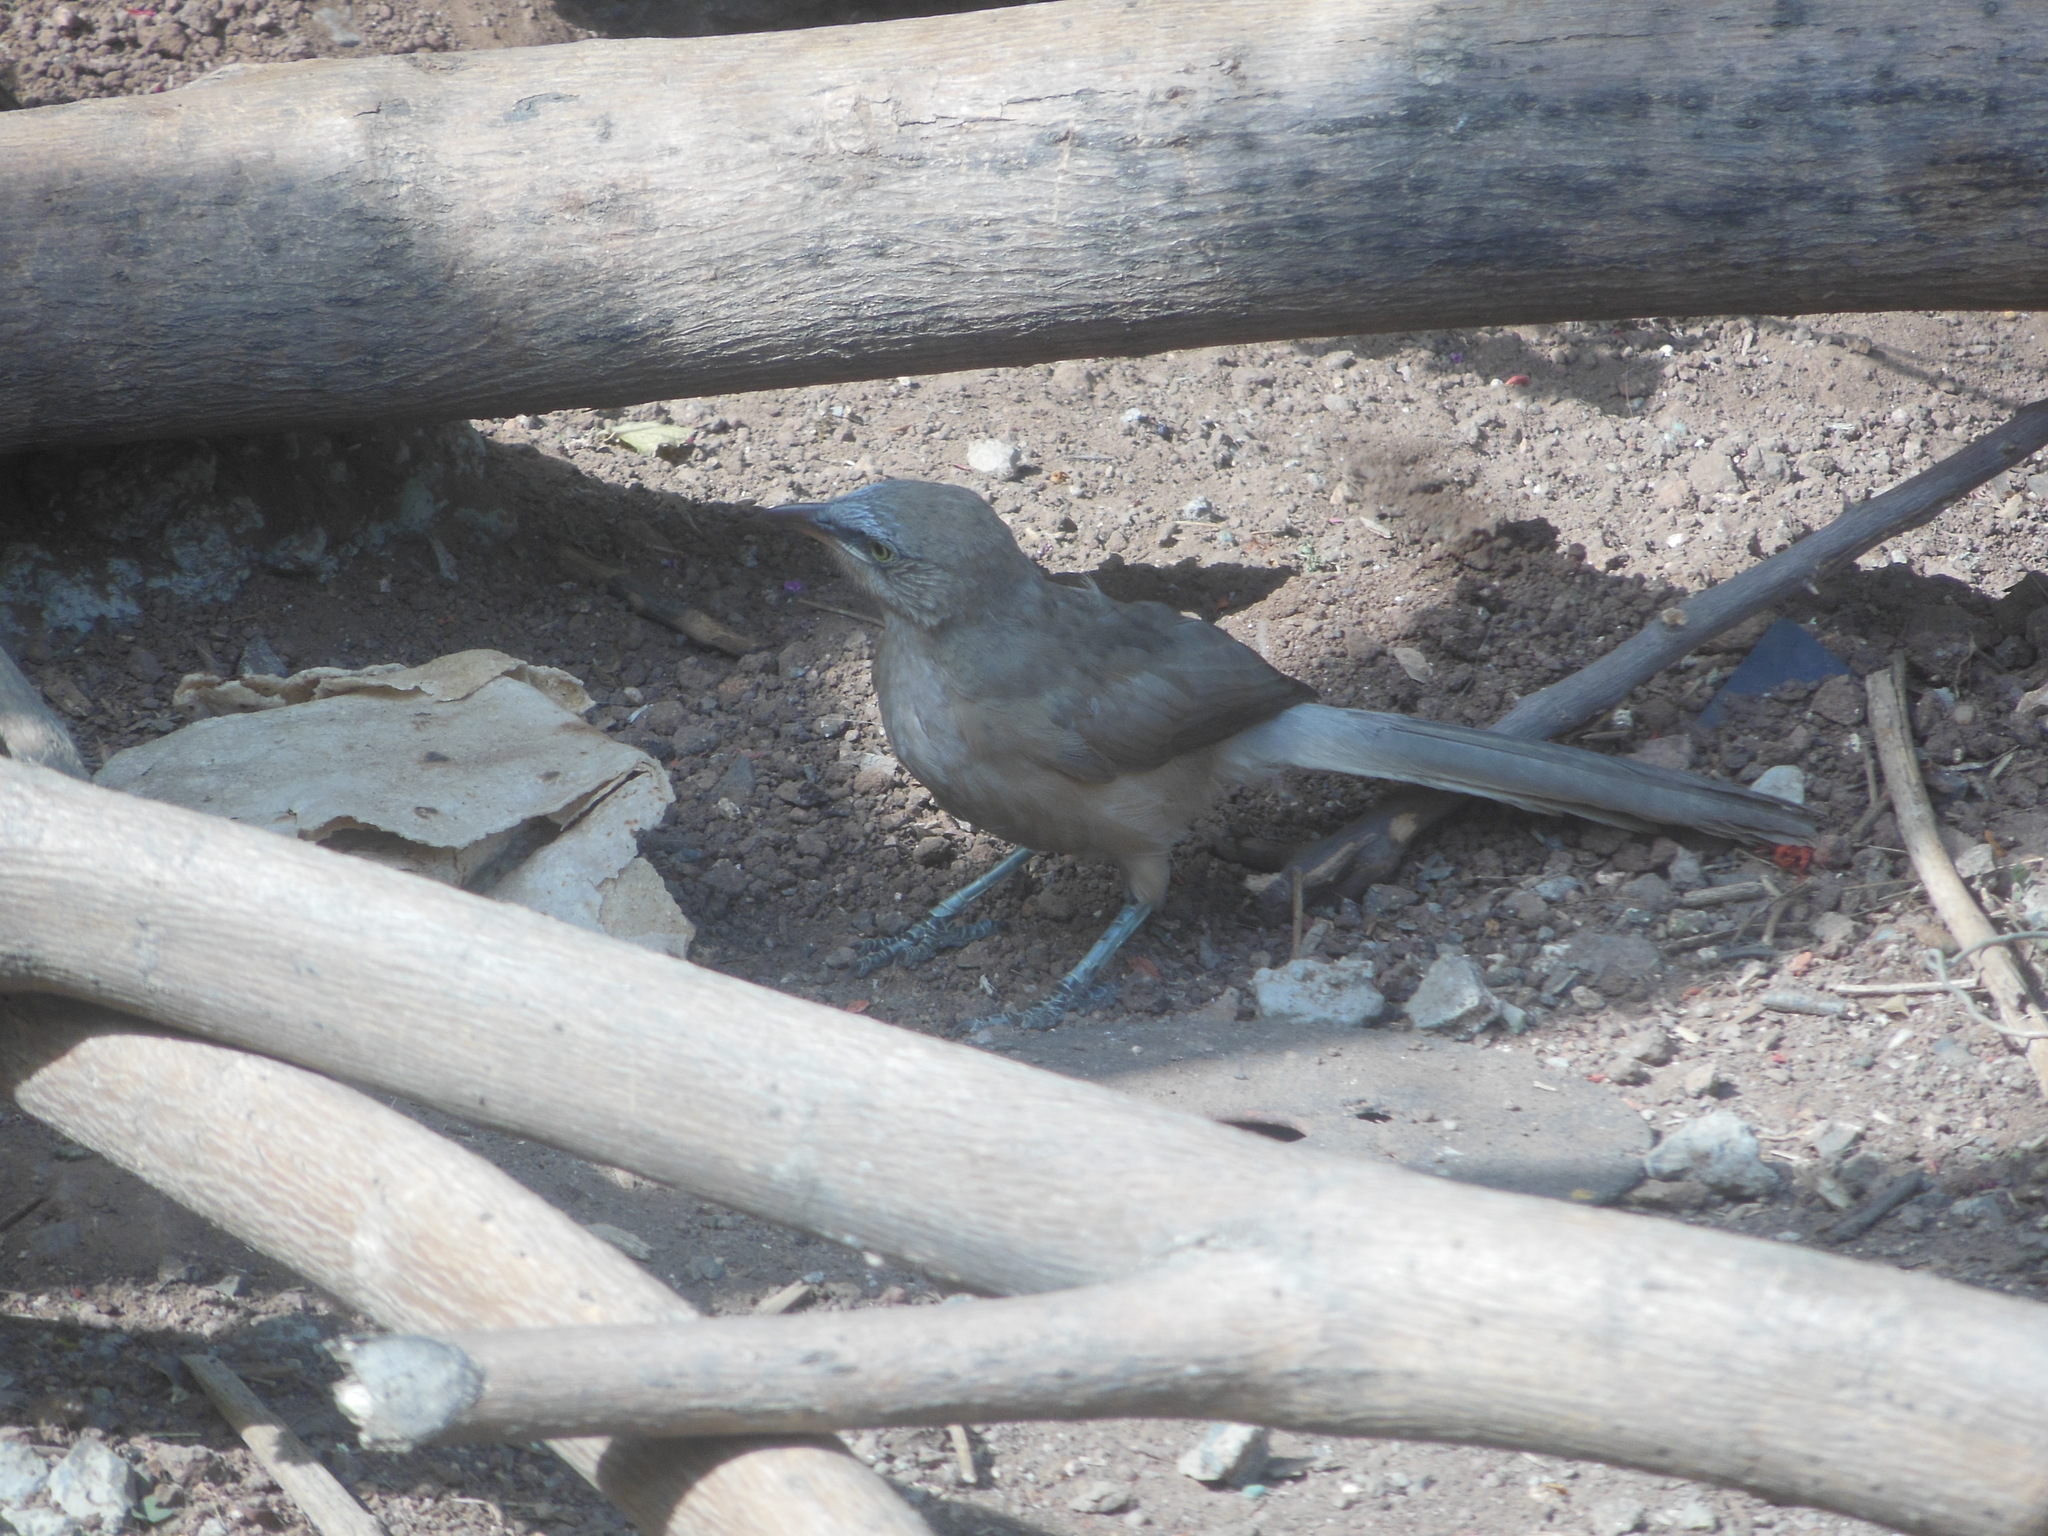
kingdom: Animalia
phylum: Chordata
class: Aves
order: Passeriformes
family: Leiothrichidae
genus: Turdoides
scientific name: Turdoides malcolmi
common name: Large grey babbler
